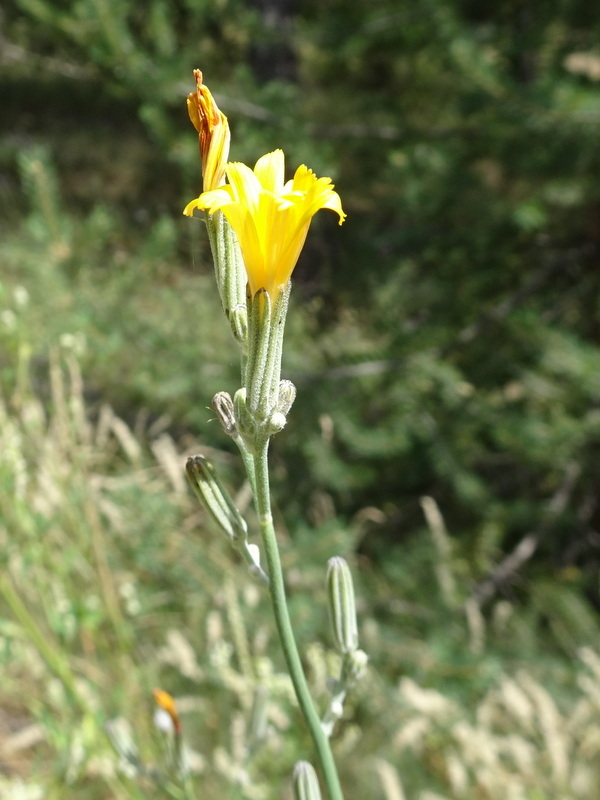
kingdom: Plantae
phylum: Tracheophyta
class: Magnoliopsida
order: Asterales
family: Asteraceae
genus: Chondrilla
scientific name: Chondrilla juncea
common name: Skeleton weed
